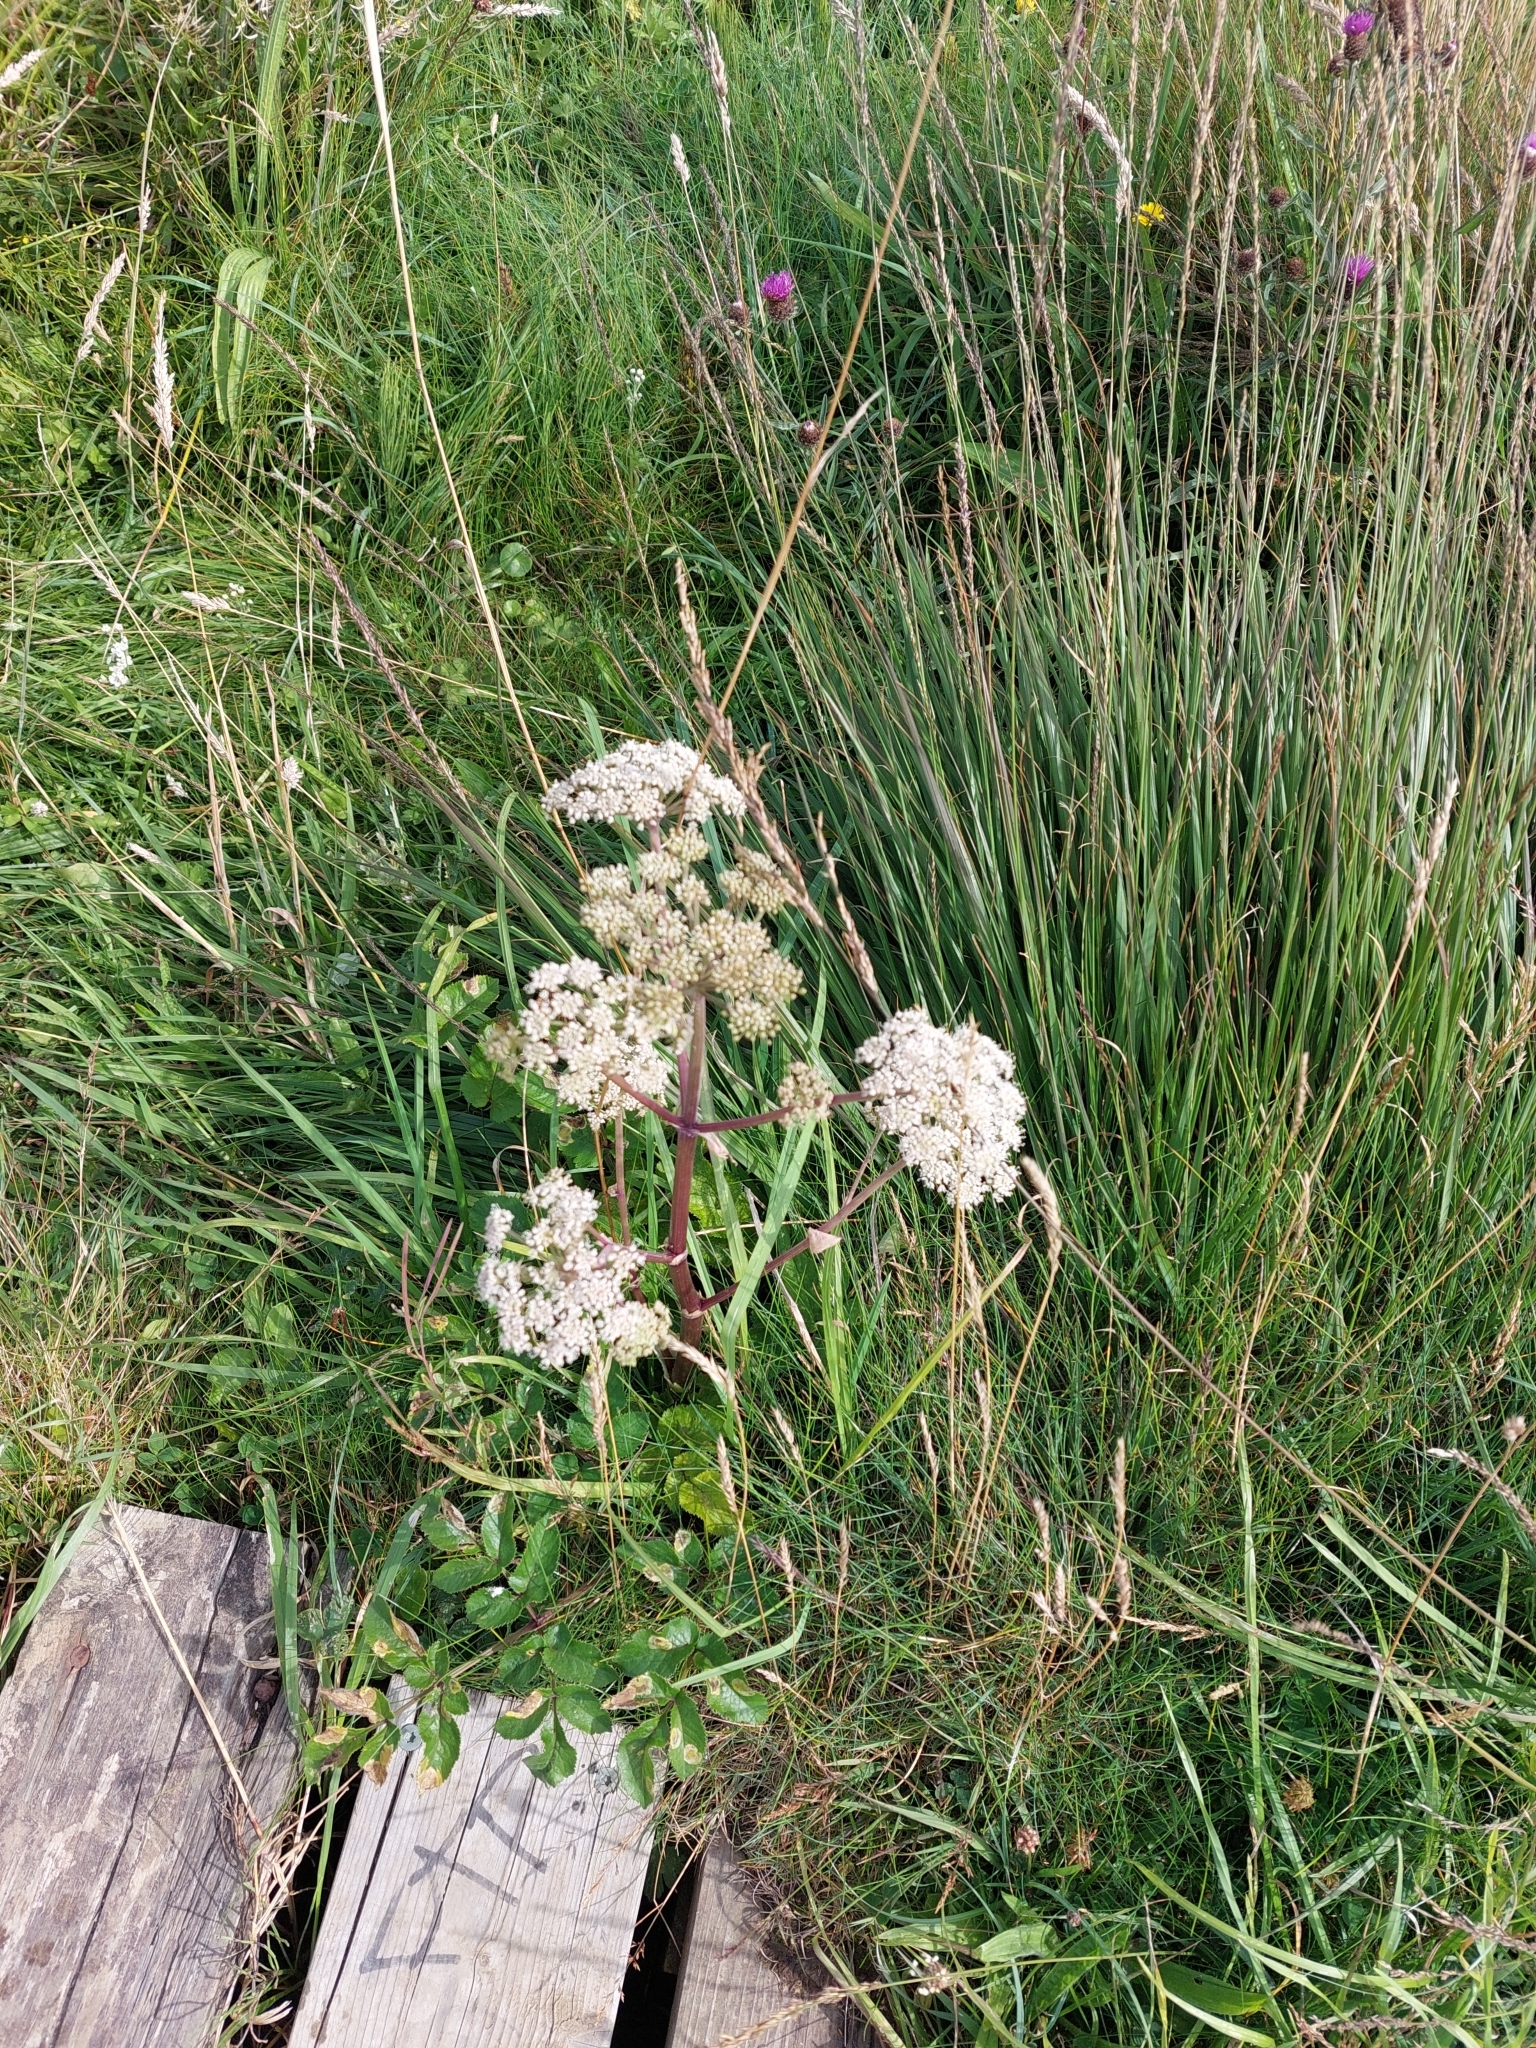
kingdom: Plantae
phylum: Tracheophyta
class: Magnoliopsida
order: Apiales
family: Apiaceae
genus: Angelica
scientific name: Angelica sylvestris
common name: Wild angelica
